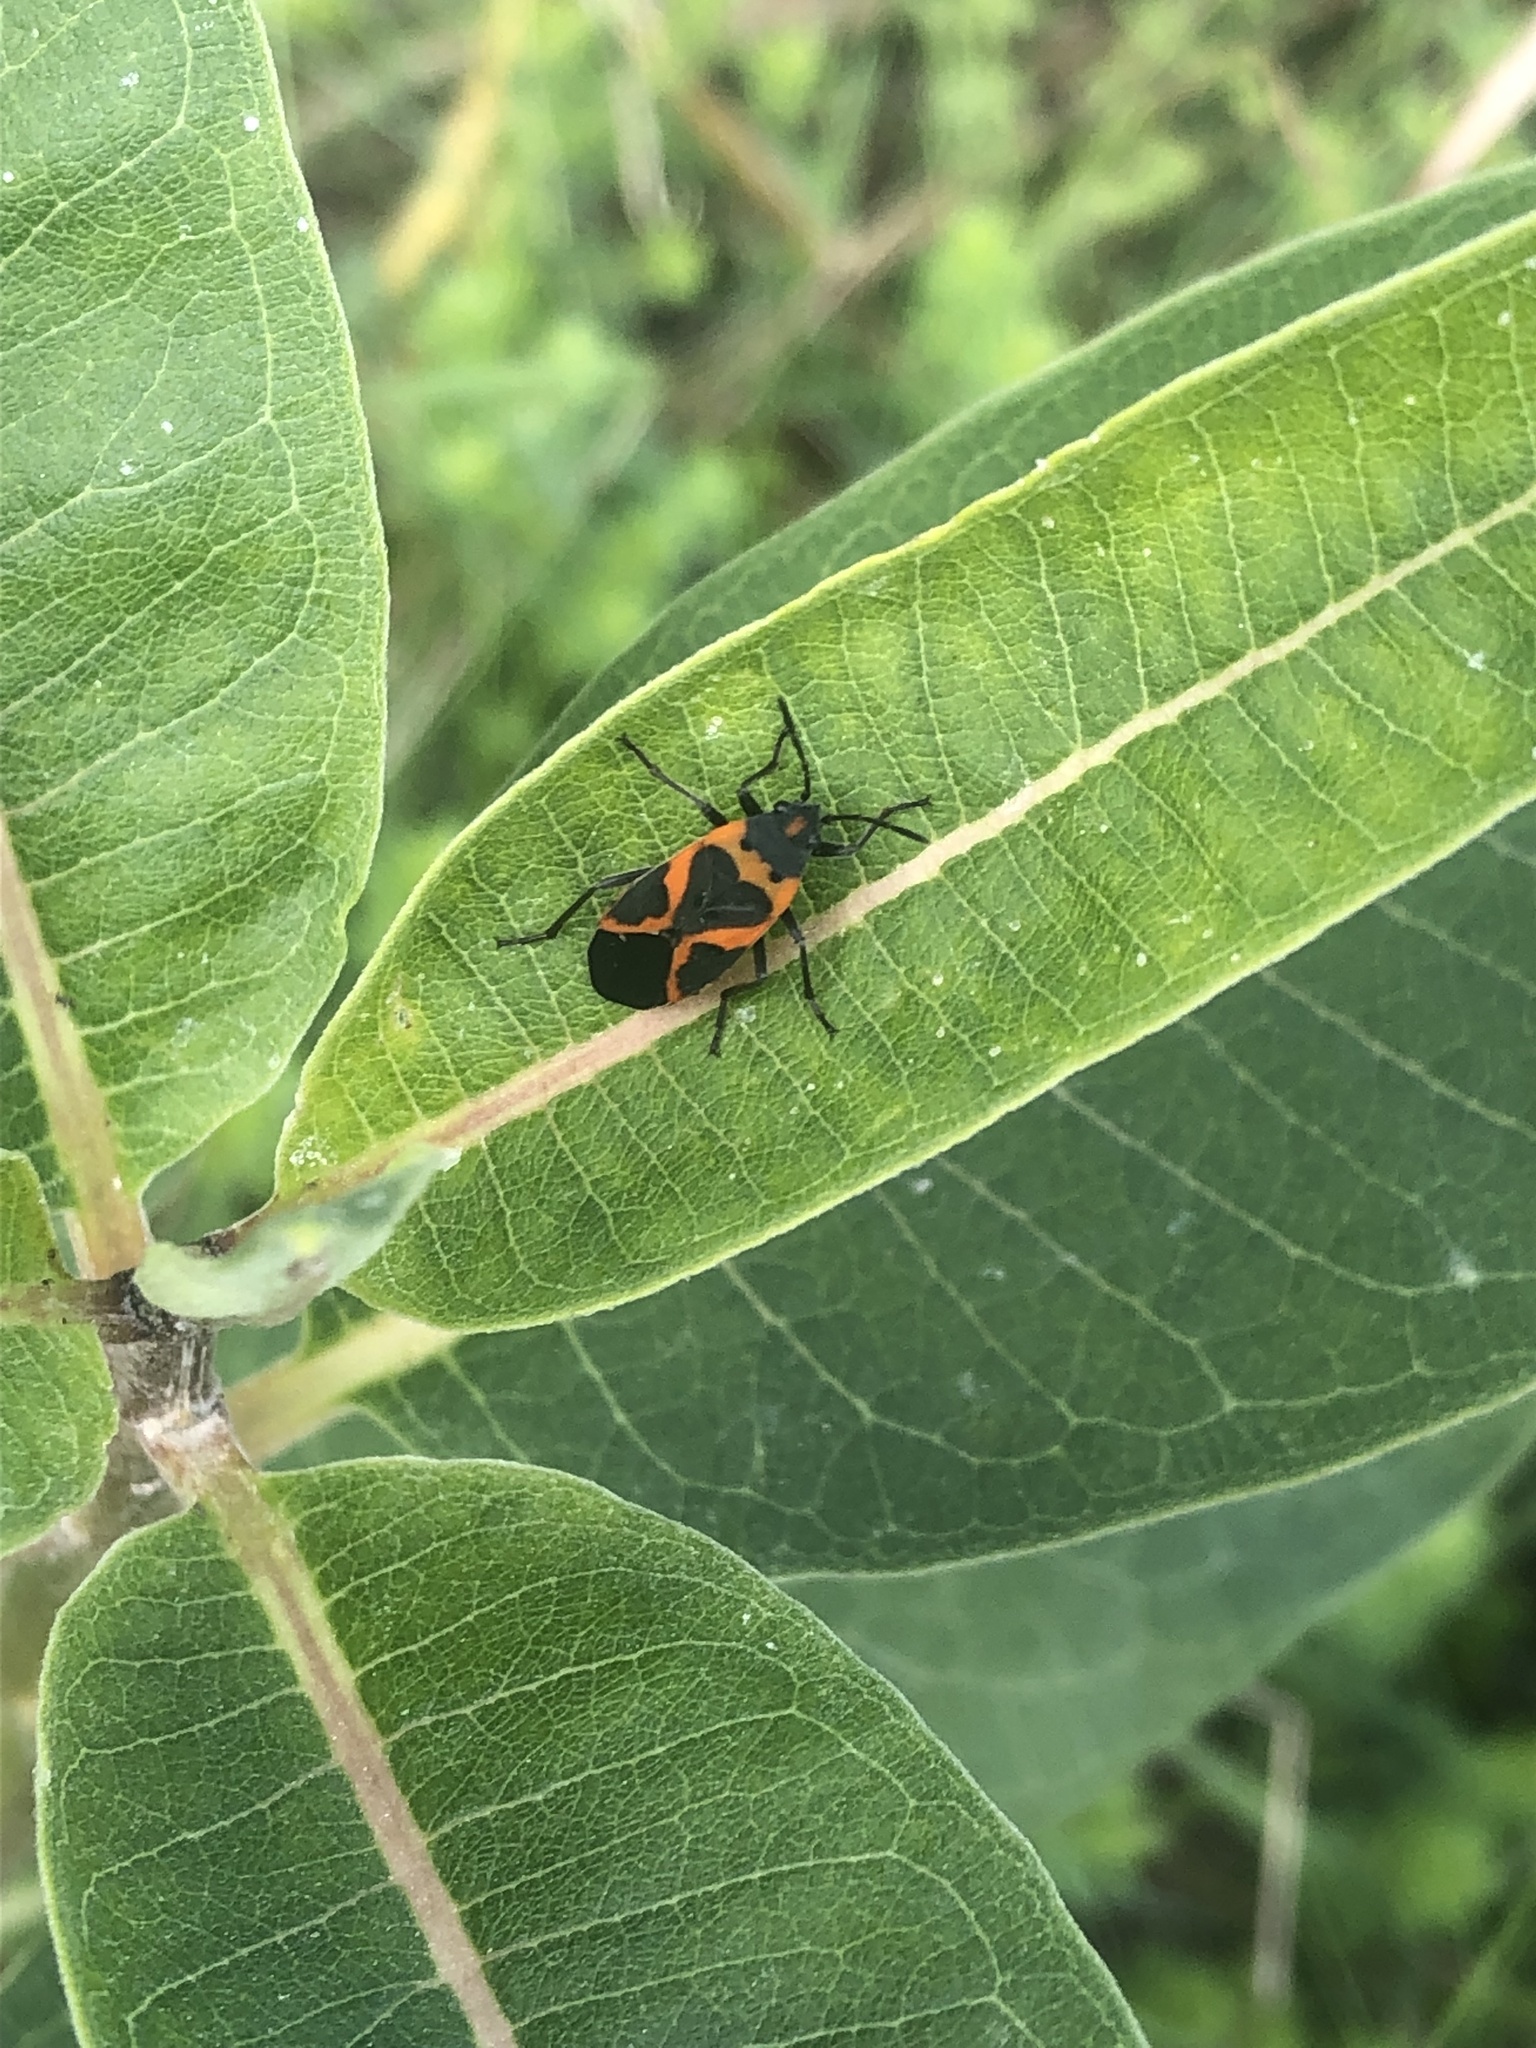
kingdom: Animalia
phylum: Arthropoda
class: Insecta
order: Hemiptera
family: Lygaeidae
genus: Lygaeus
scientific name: Lygaeus kalmii
